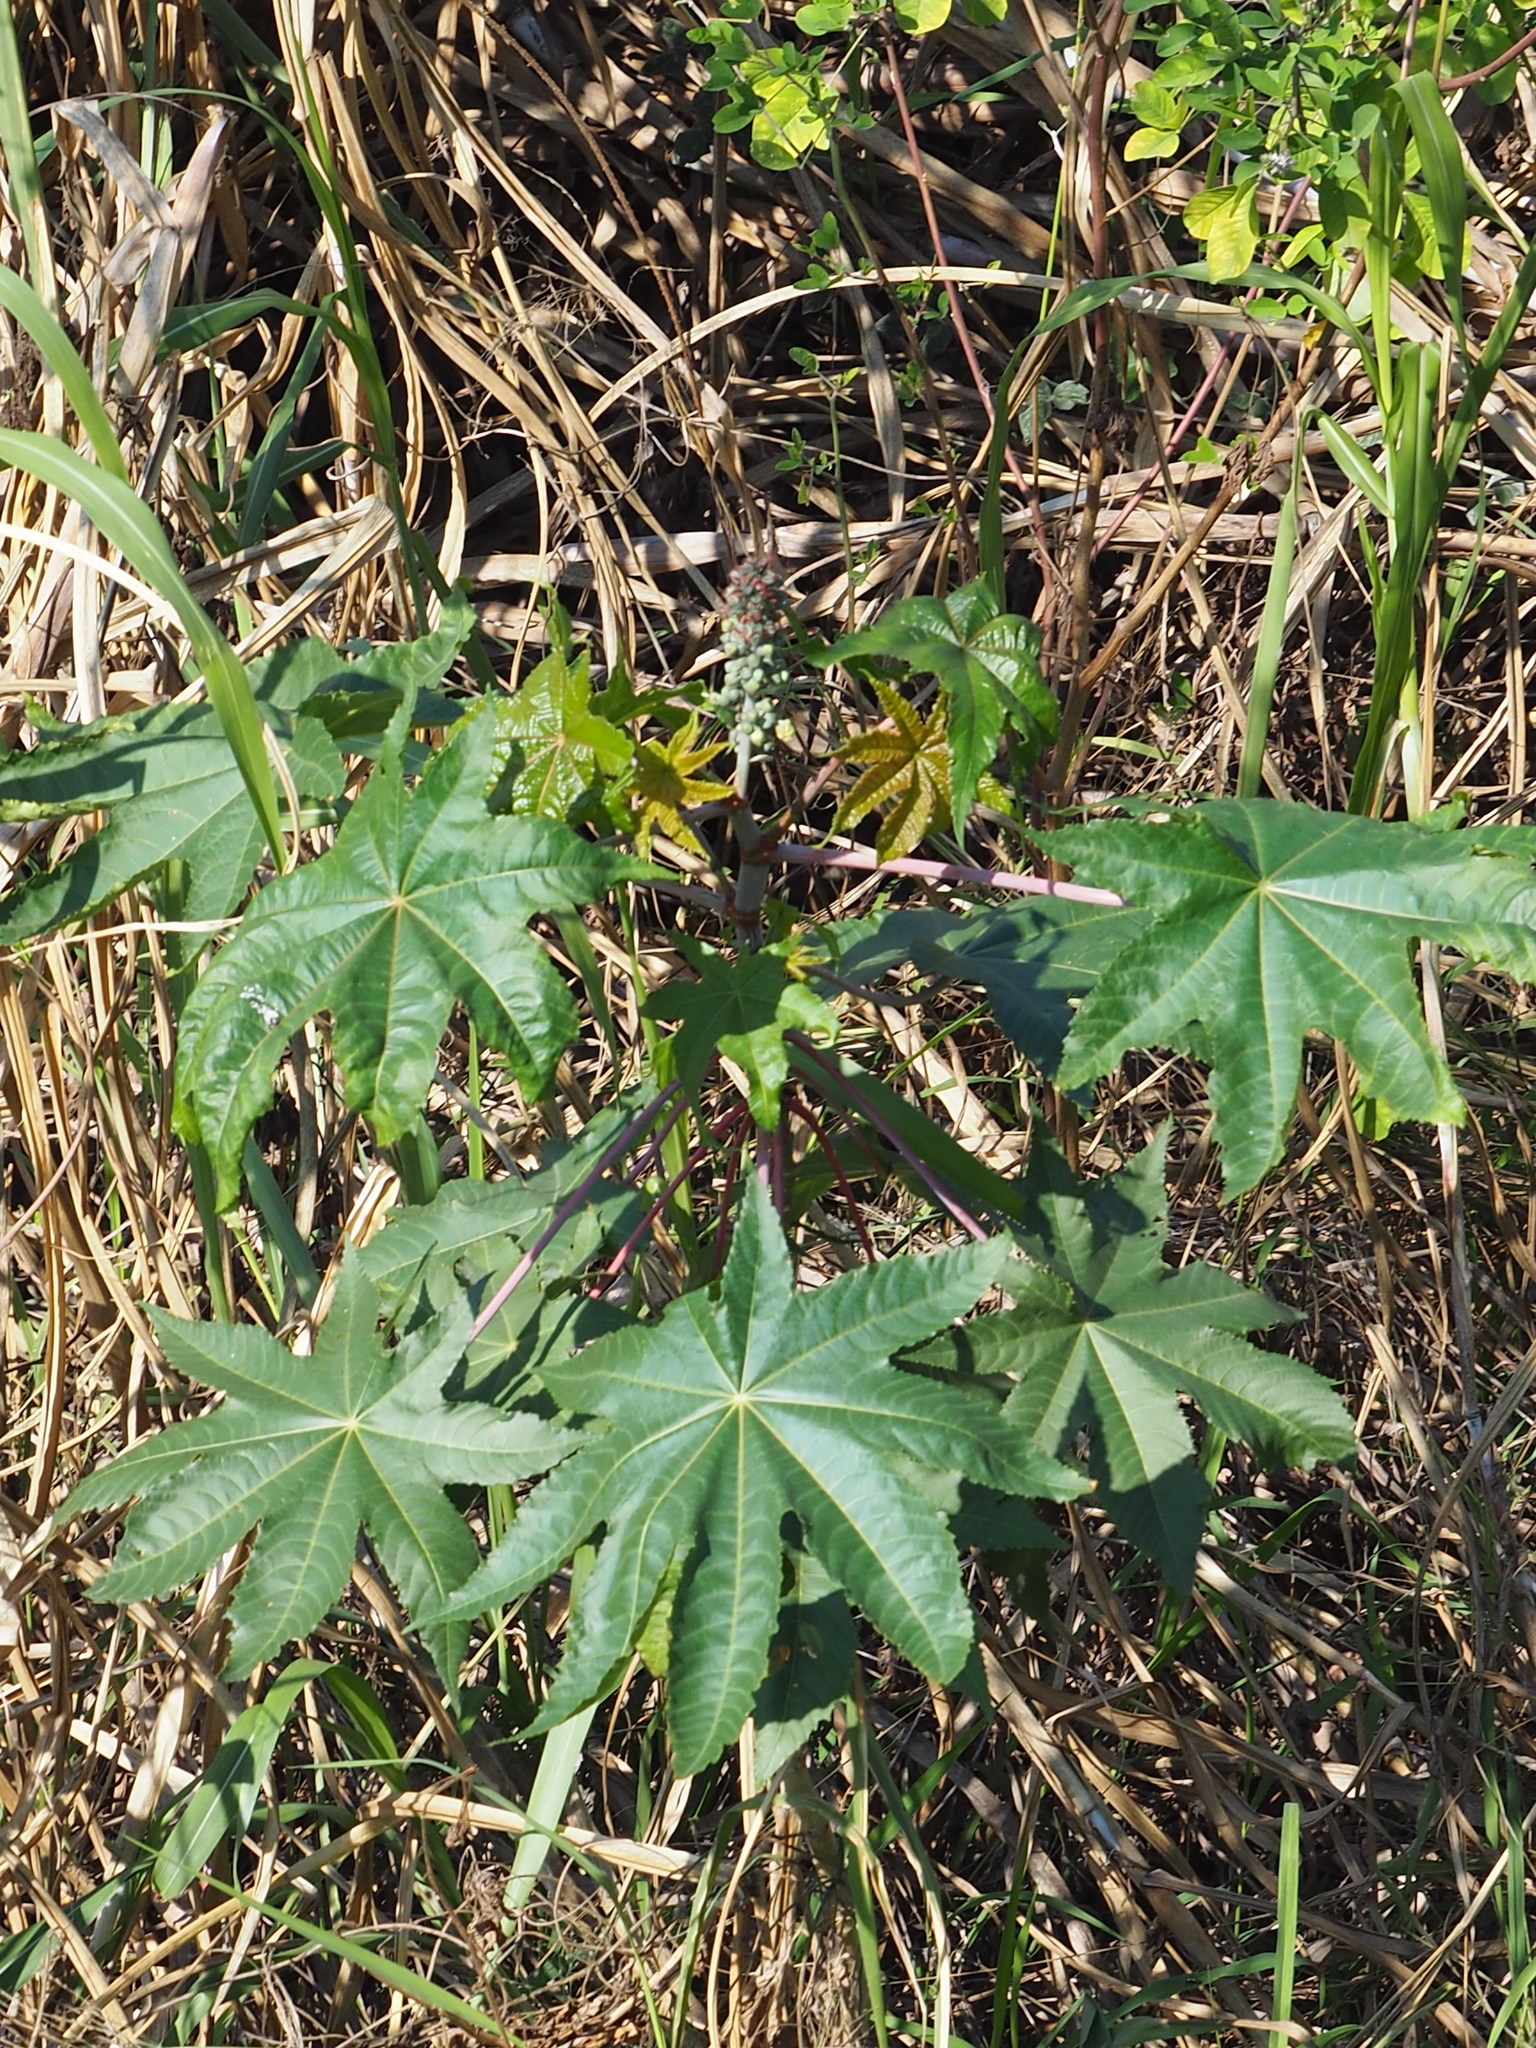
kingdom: Plantae
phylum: Tracheophyta
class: Magnoliopsida
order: Malpighiales
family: Euphorbiaceae
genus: Ricinus
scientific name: Ricinus communis
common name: Castor-oil-plant
